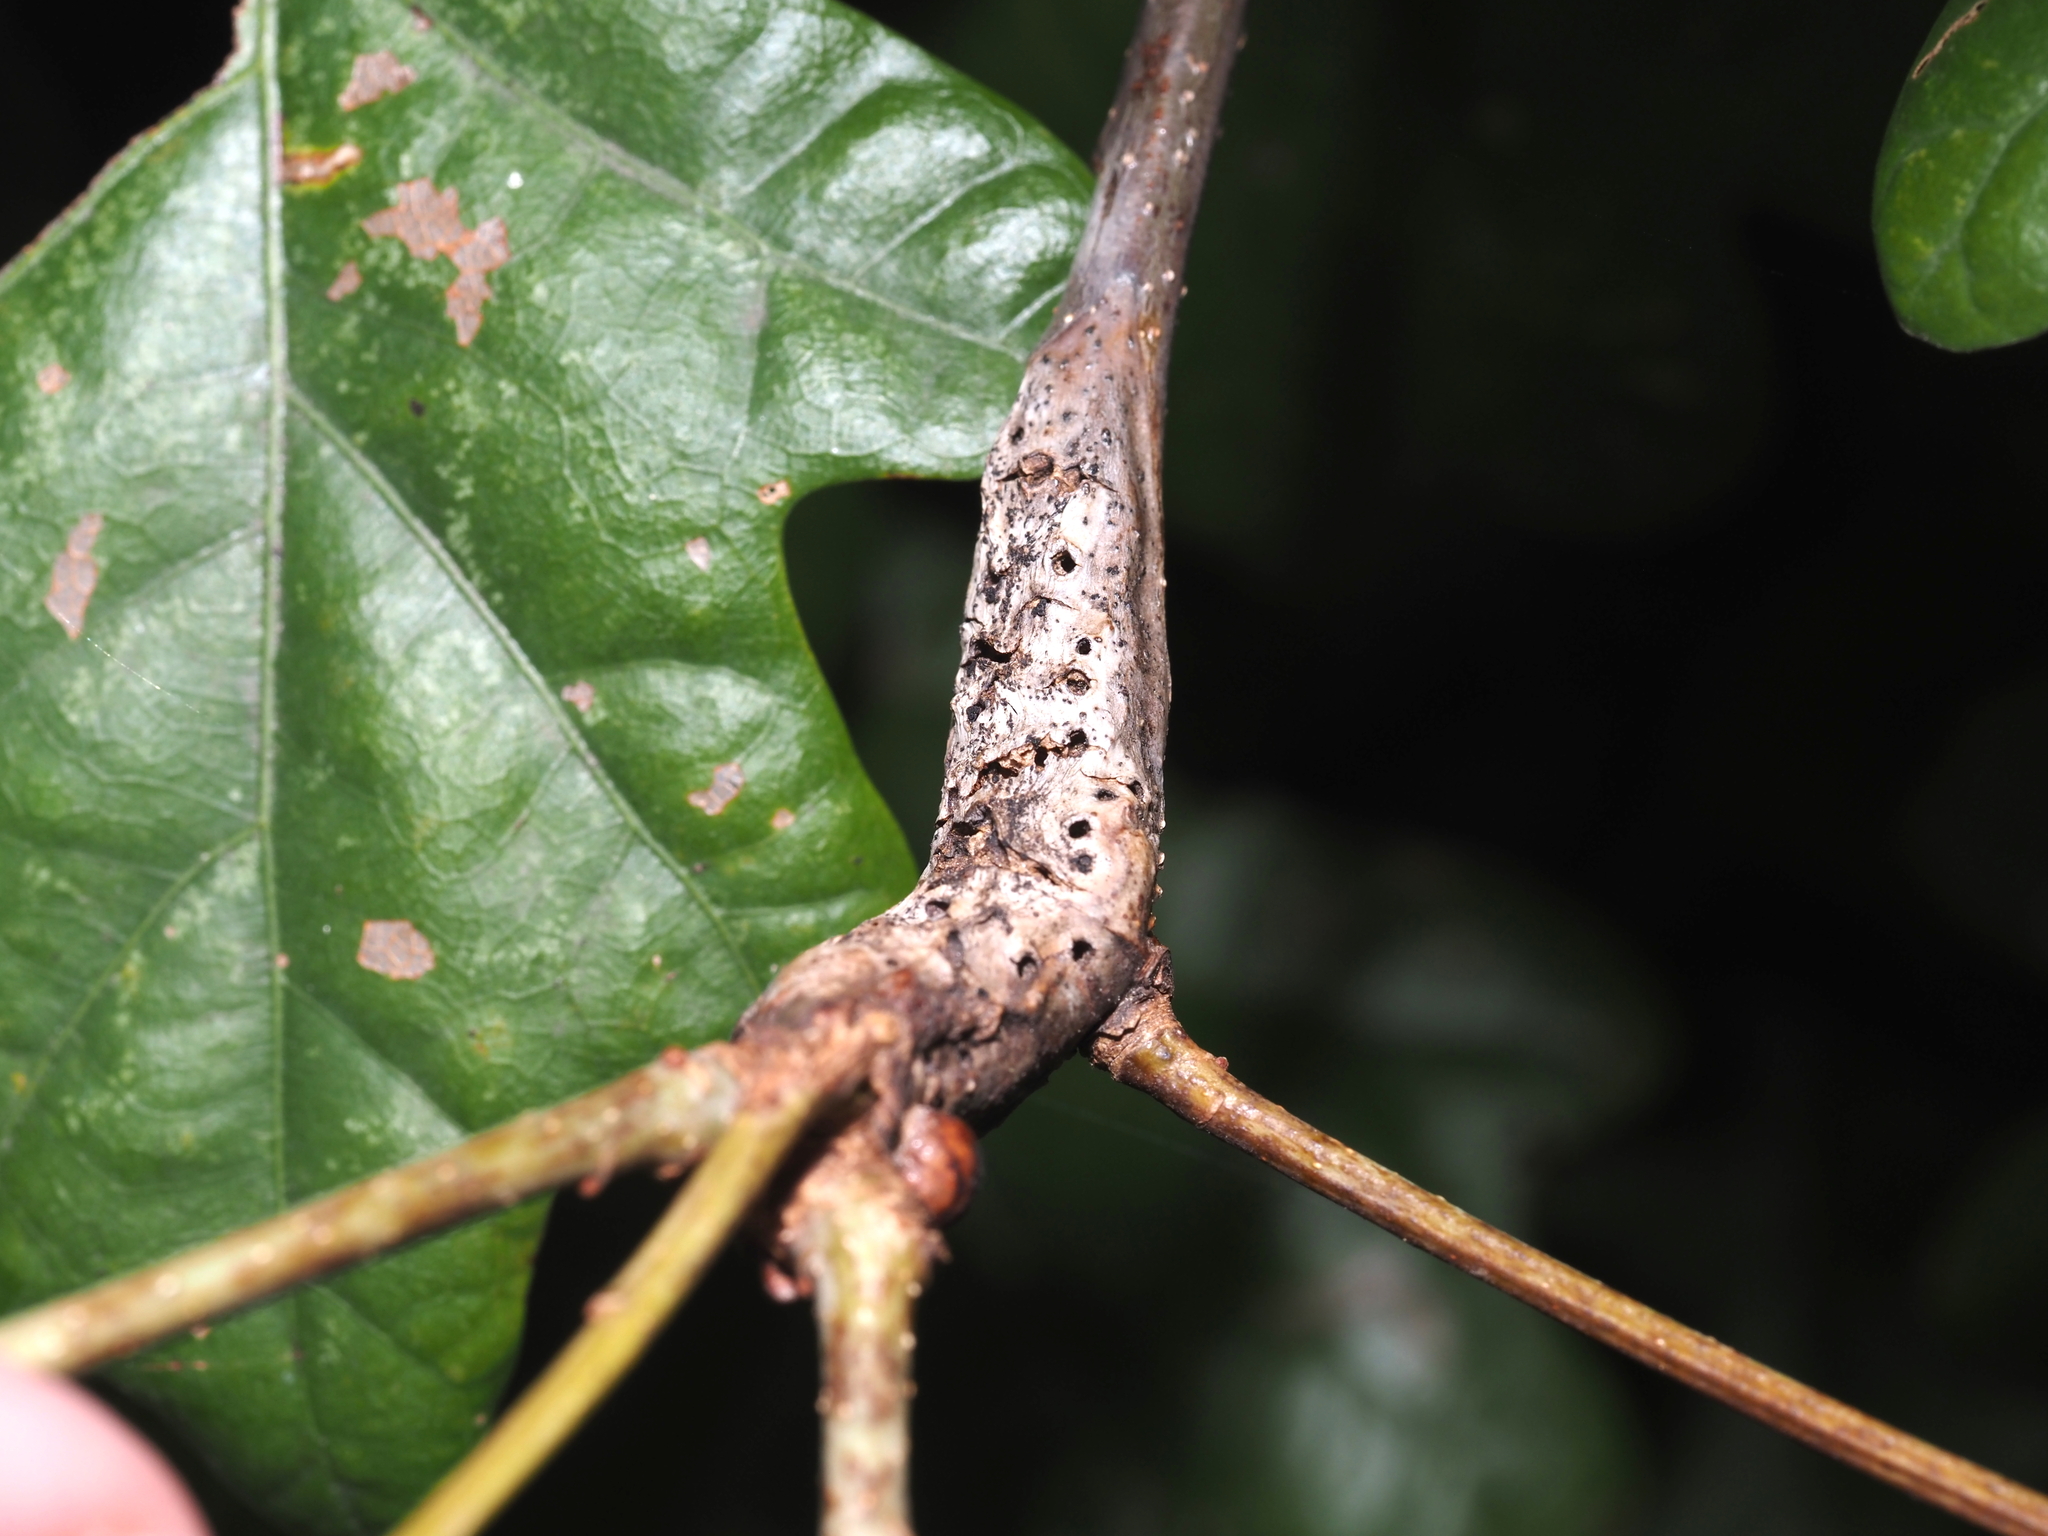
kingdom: Animalia
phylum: Arthropoda
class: Insecta
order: Hymenoptera
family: Cynipidae
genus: Neuroterus
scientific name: Neuroterus quercusbaccarum
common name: Common spangle gall
